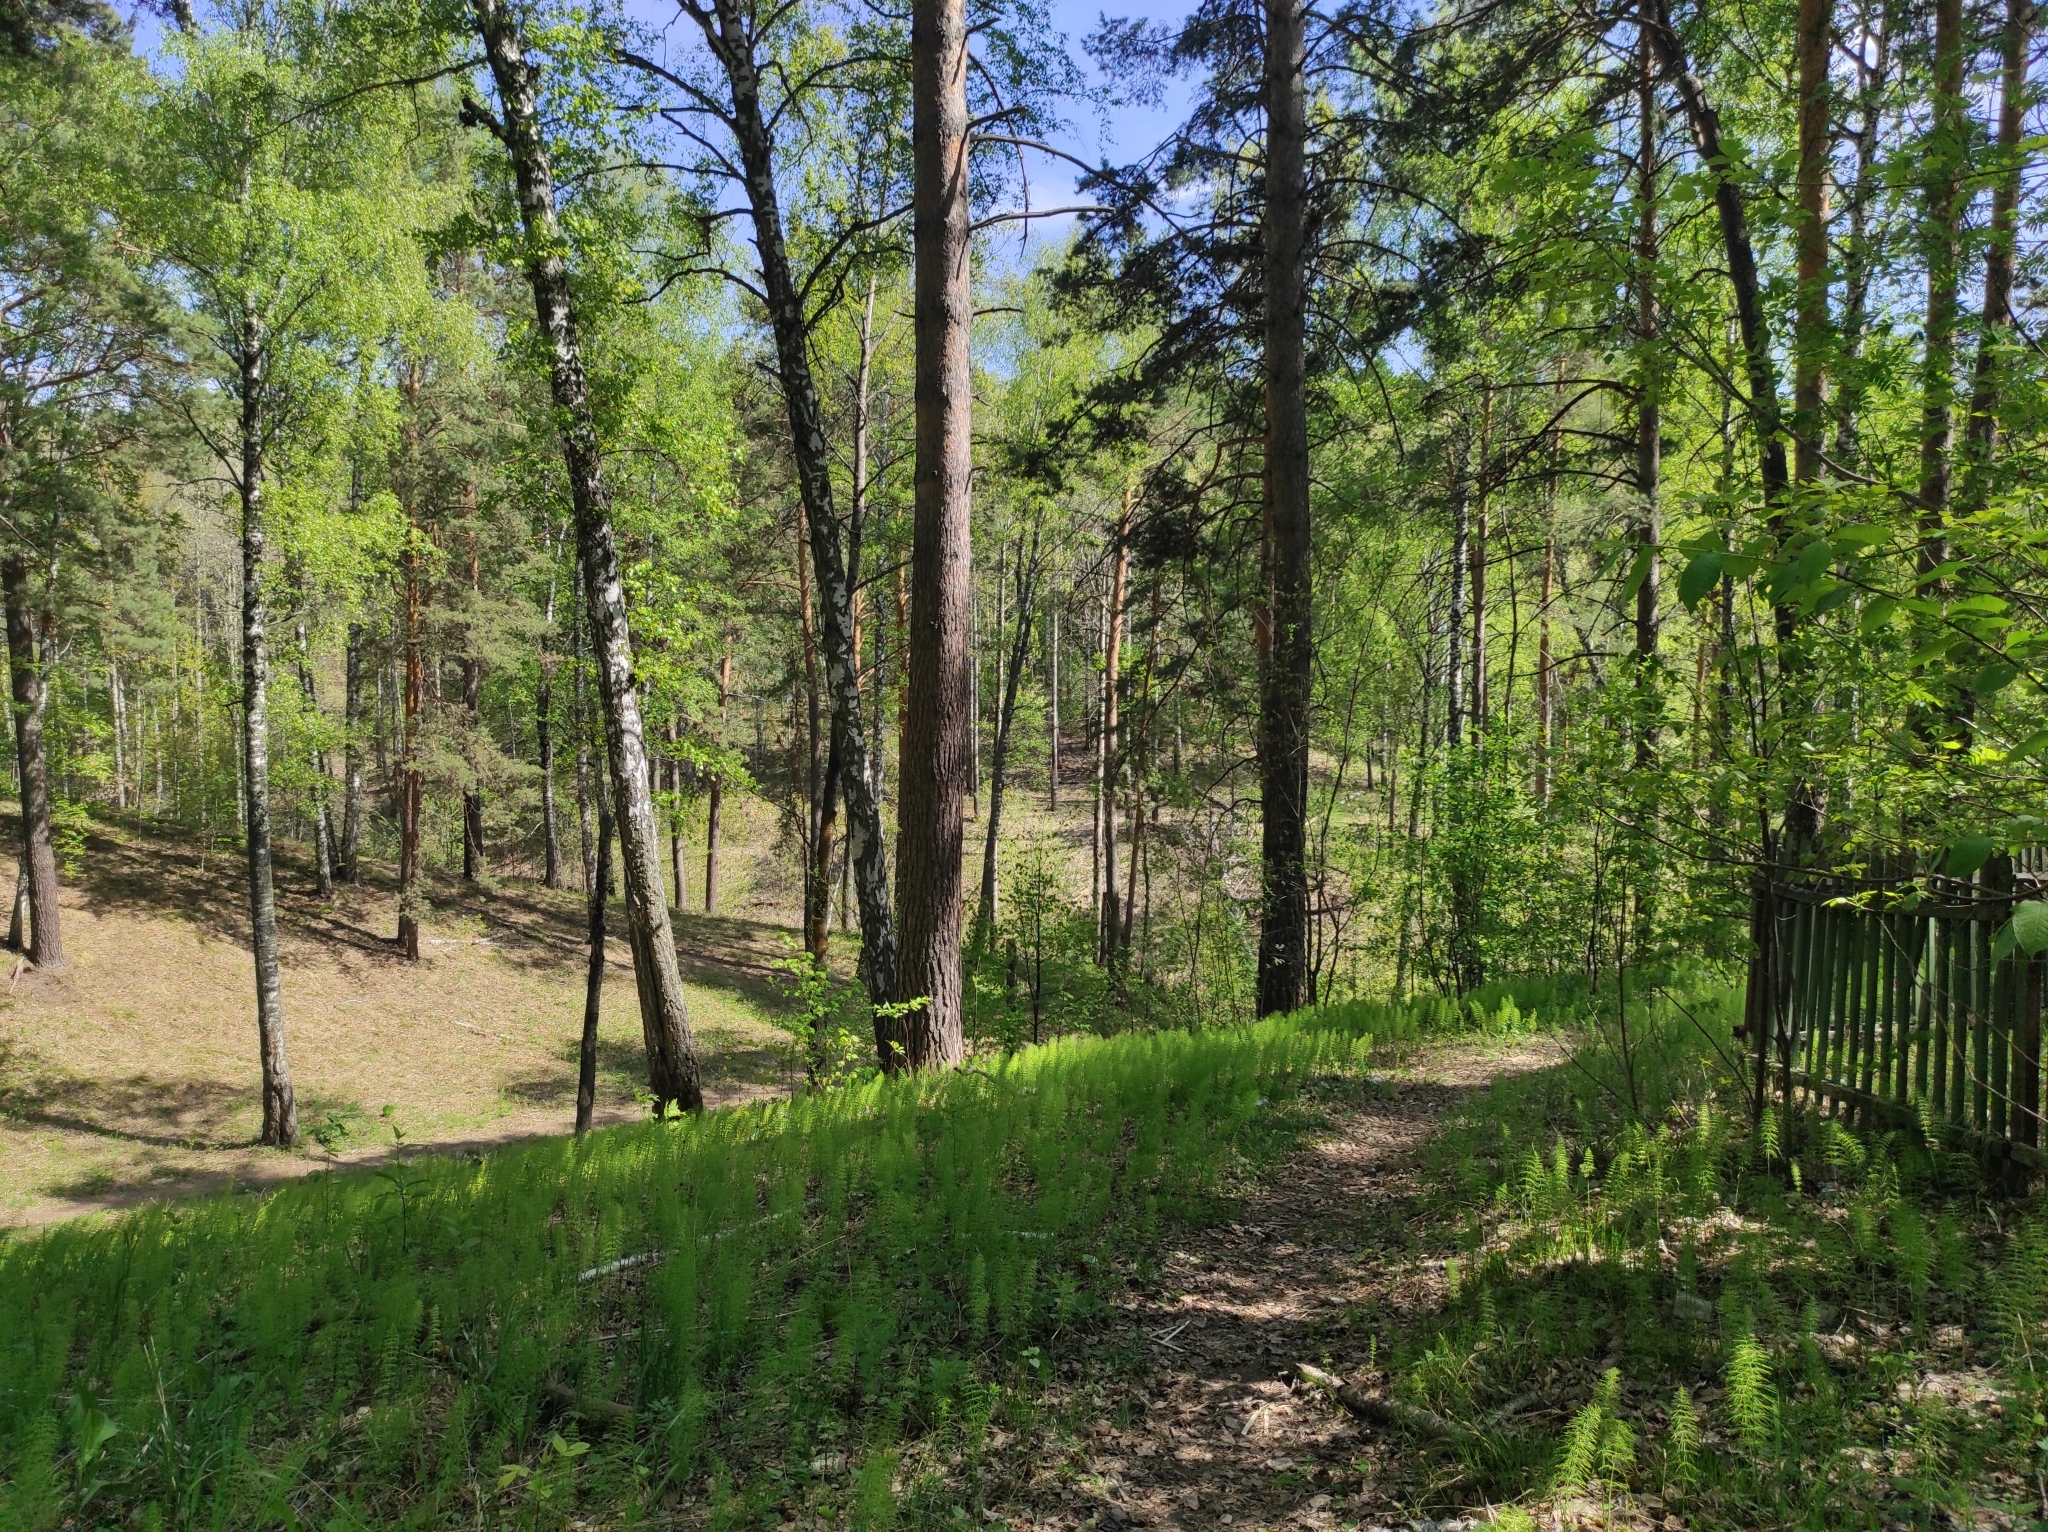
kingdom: Plantae
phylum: Tracheophyta
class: Pinopsida
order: Pinales
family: Pinaceae
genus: Pinus
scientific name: Pinus sylvestris
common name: Scots pine
